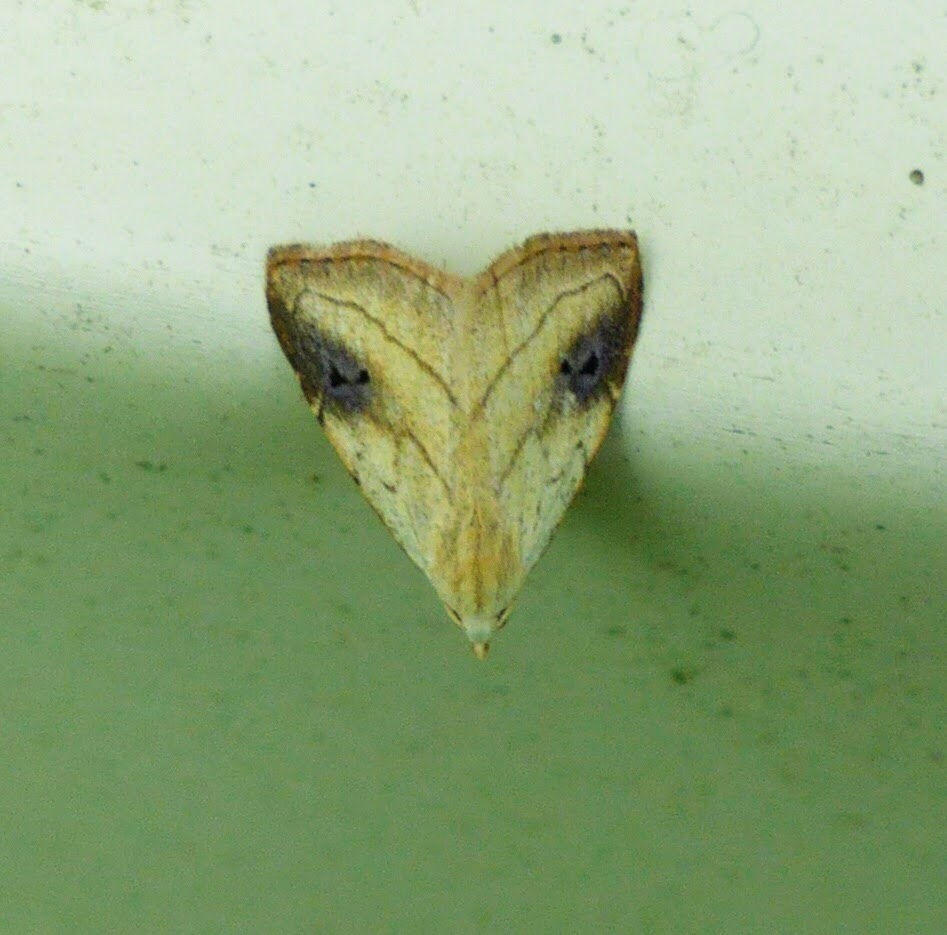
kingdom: Animalia
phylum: Arthropoda
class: Insecta
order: Lepidoptera
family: Erebidae
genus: Rivula
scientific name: Rivula propinqualis
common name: Spotted grass moth
